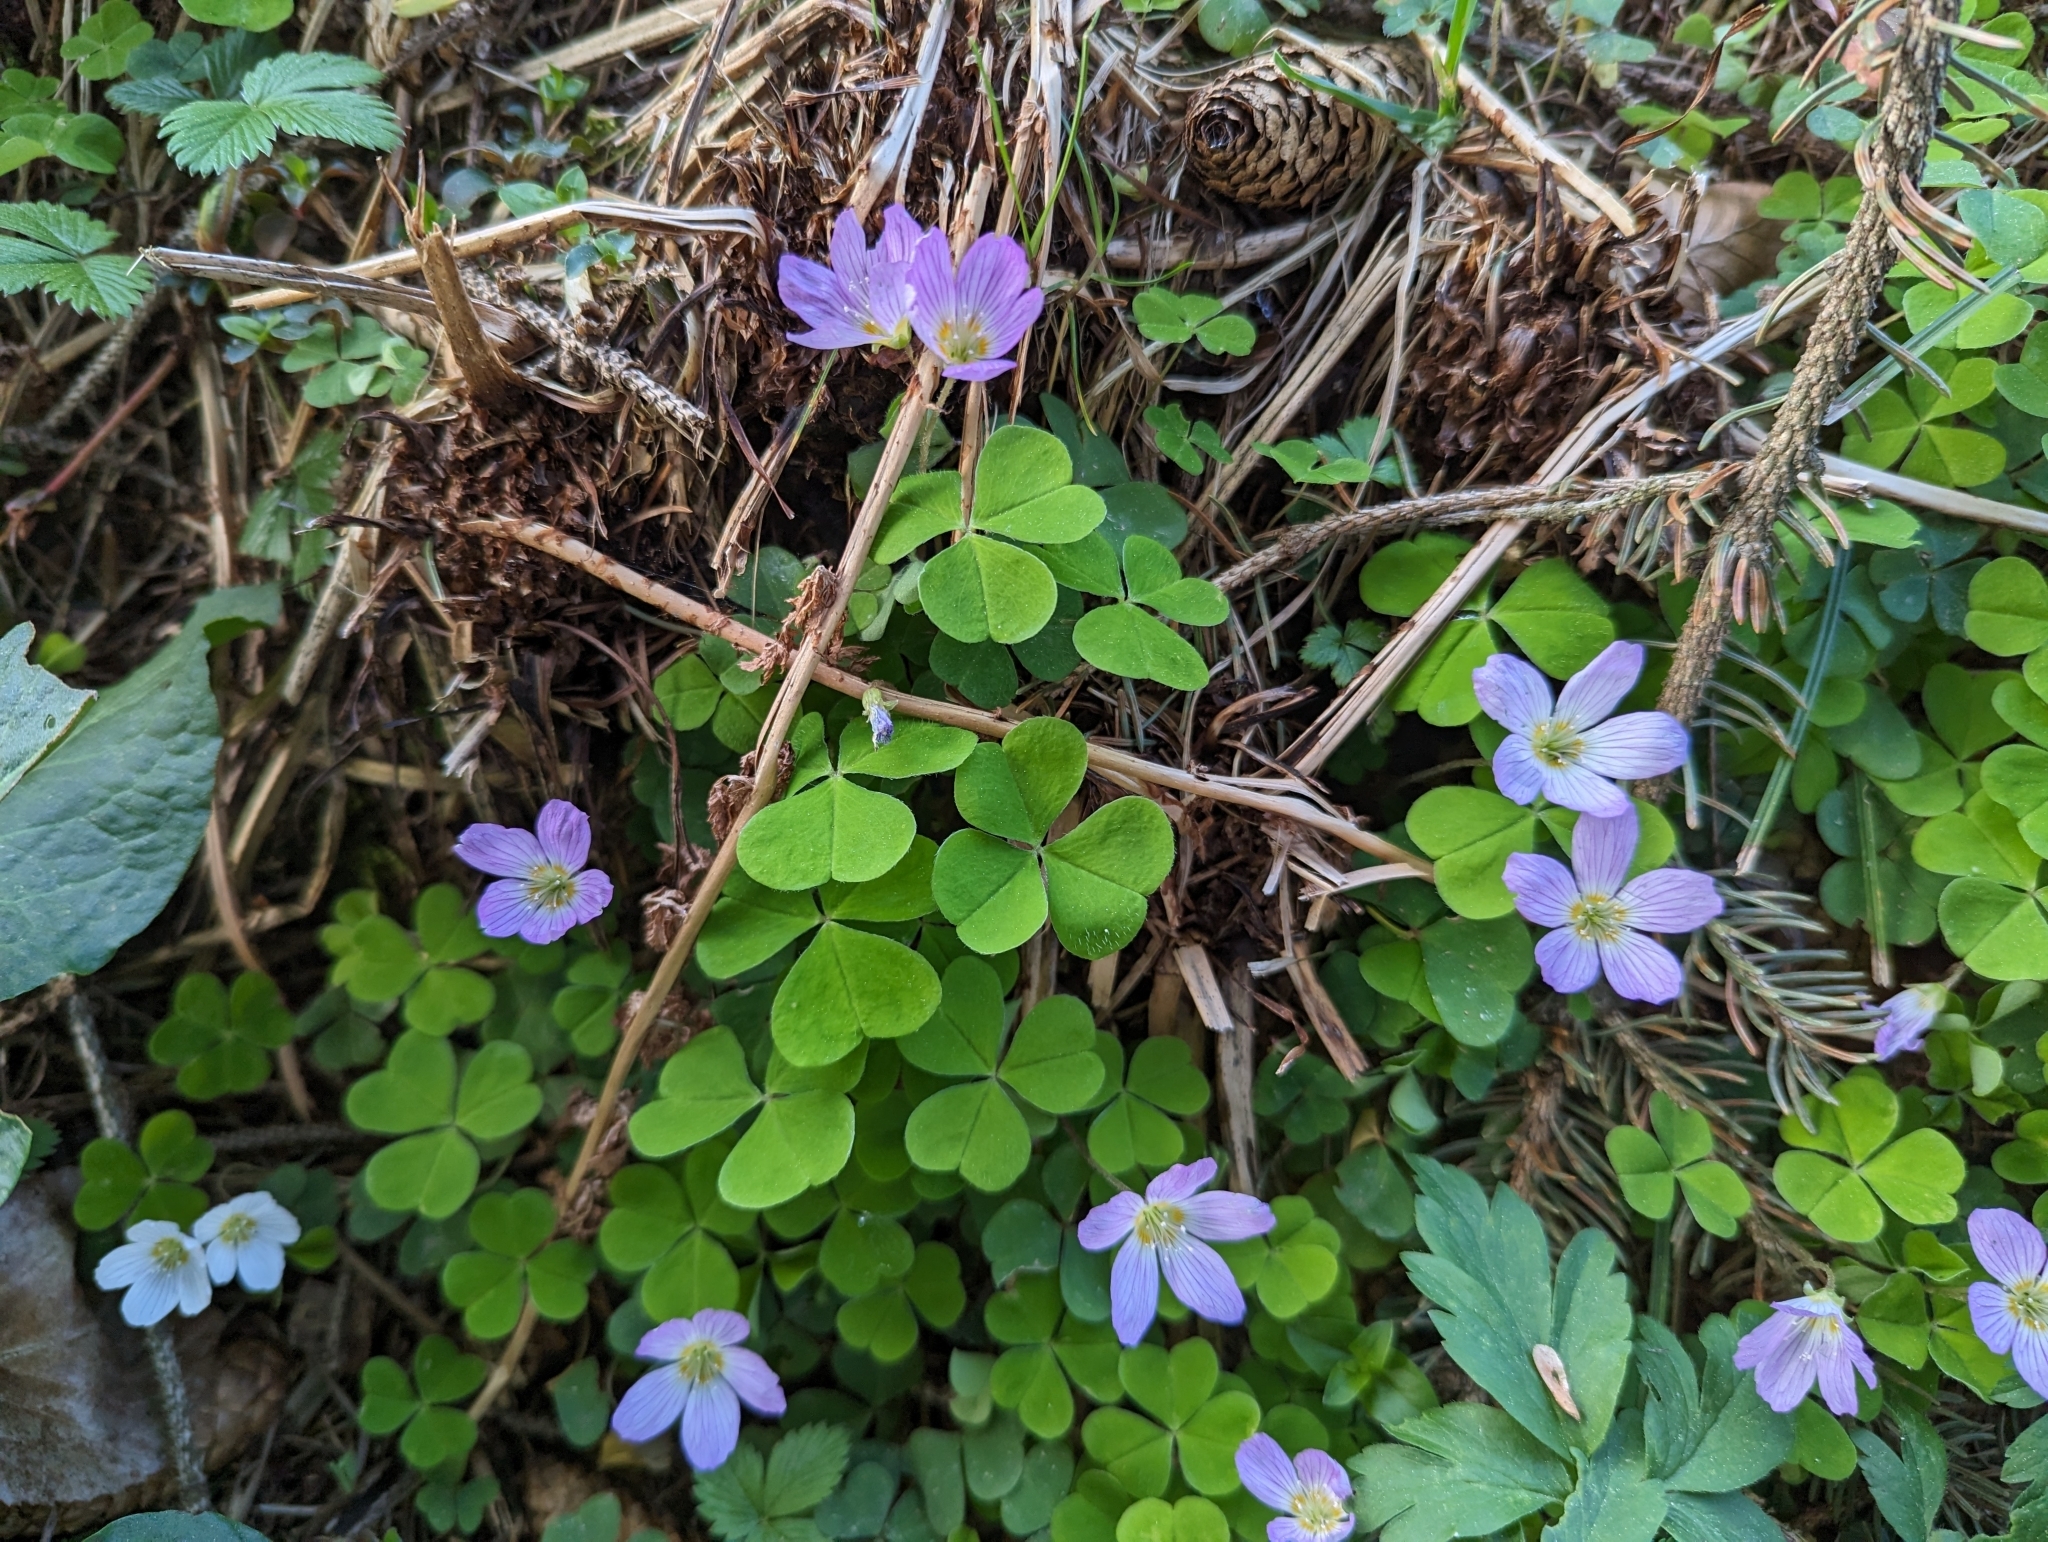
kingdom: Plantae
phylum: Tracheophyta
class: Magnoliopsida
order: Oxalidales
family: Oxalidaceae
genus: Oxalis
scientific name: Oxalis acetosella
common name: Wood-sorrel
